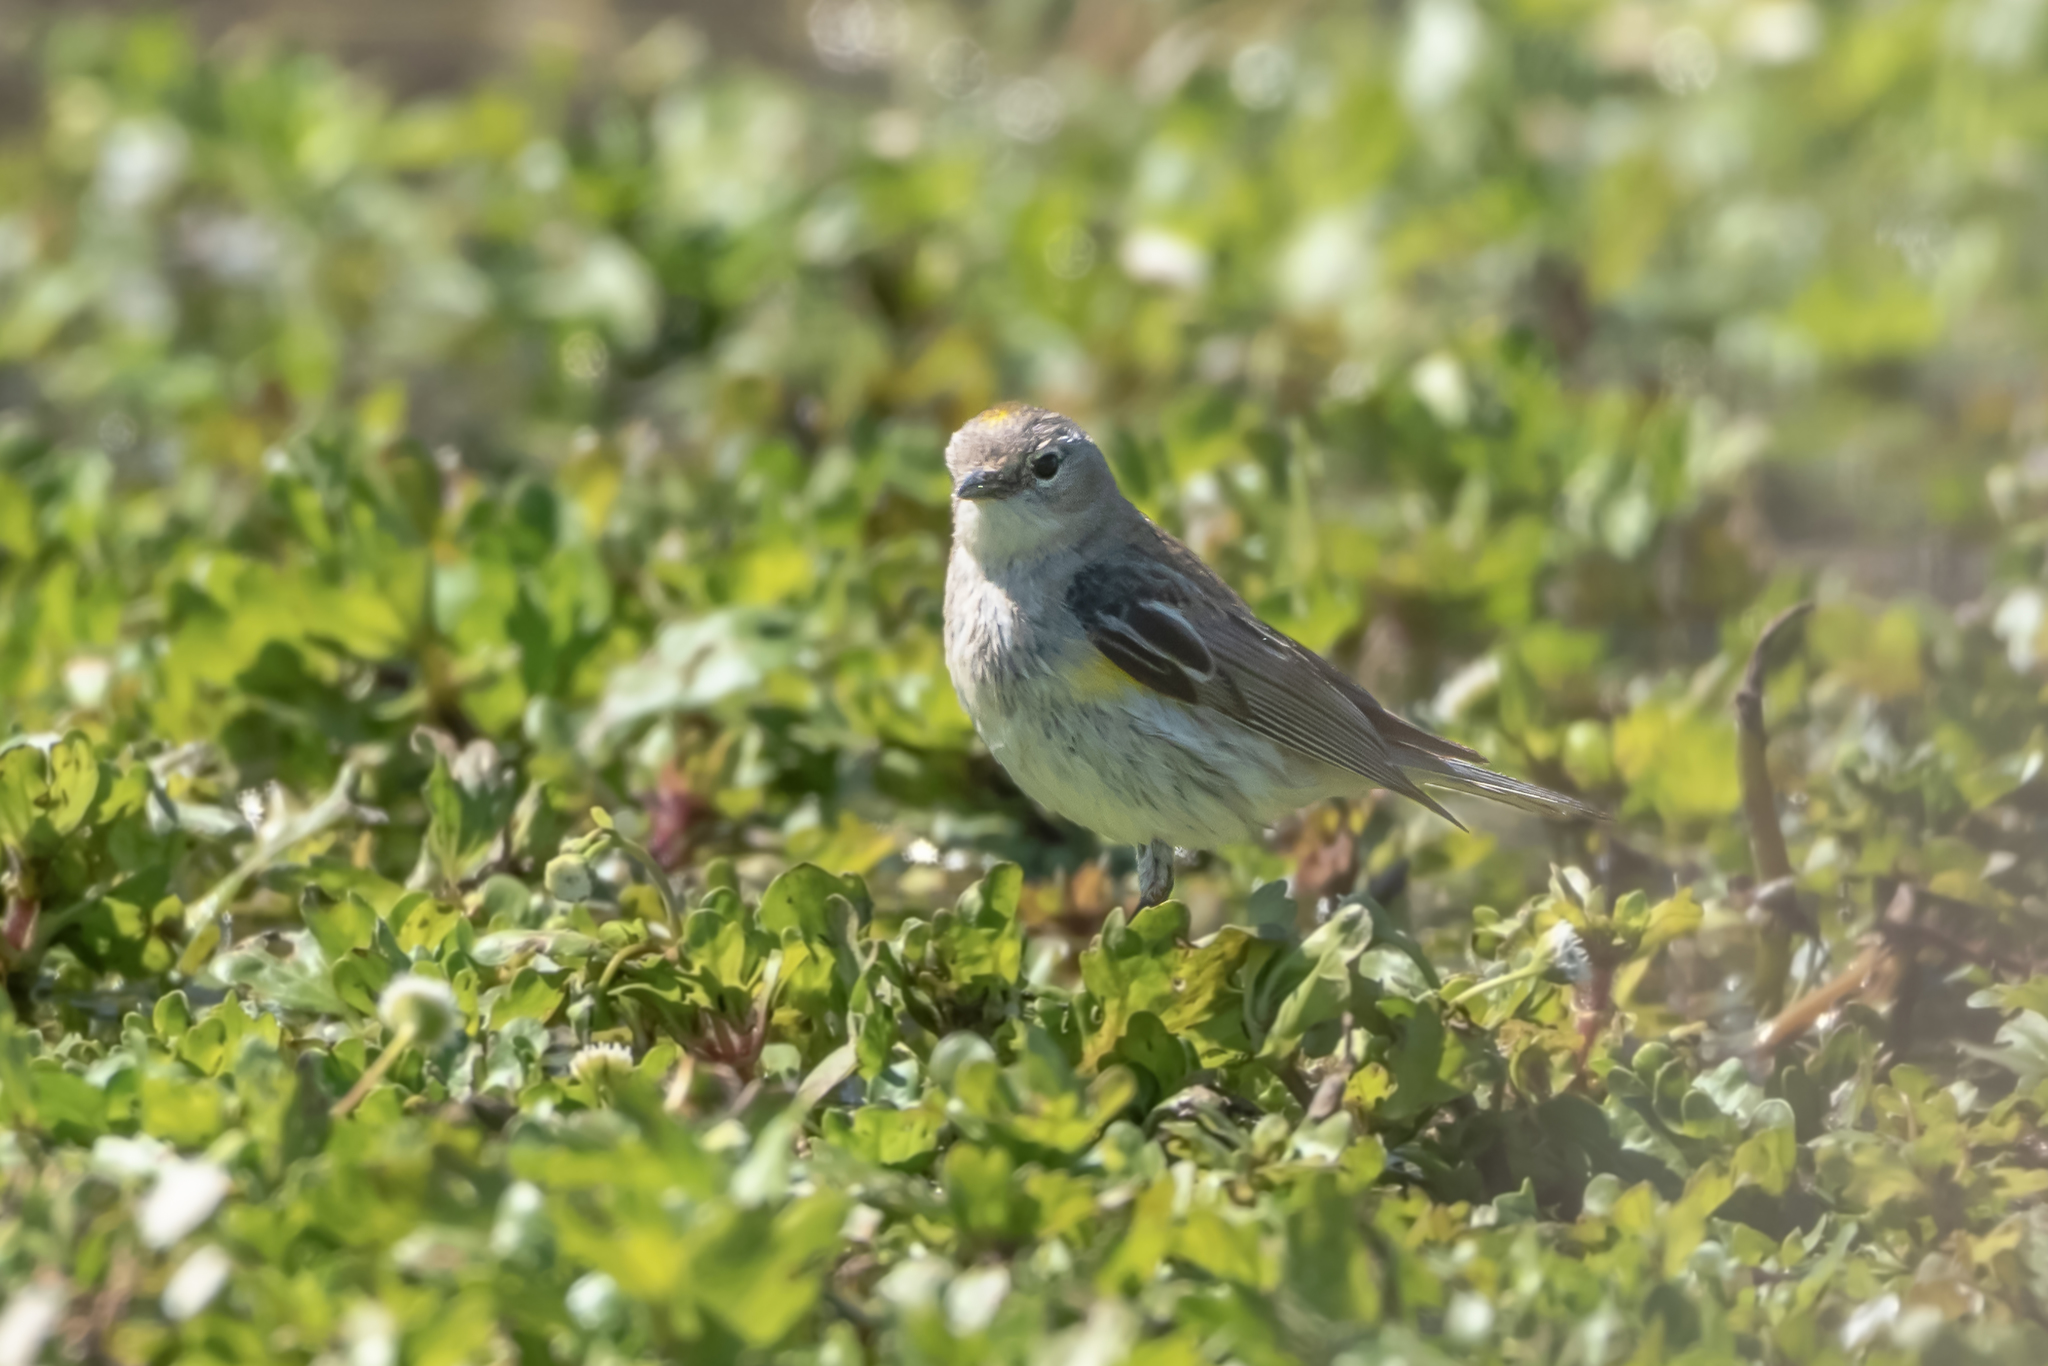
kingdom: Animalia
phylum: Chordata
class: Aves
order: Passeriformes
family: Parulidae
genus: Setophaga
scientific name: Setophaga coronata
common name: Myrtle warbler
